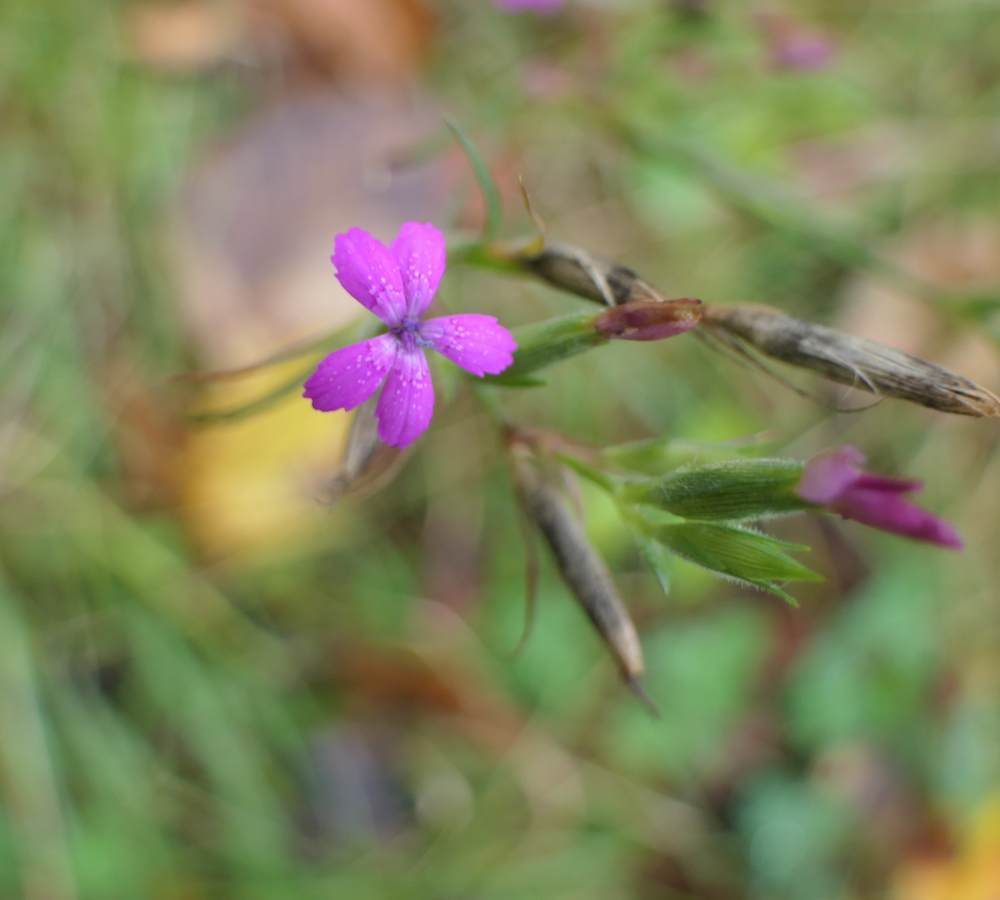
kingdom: Plantae
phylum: Tracheophyta
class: Magnoliopsida
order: Caryophyllales
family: Caryophyllaceae
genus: Dianthus
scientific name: Dianthus armeria
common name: Deptford pink
